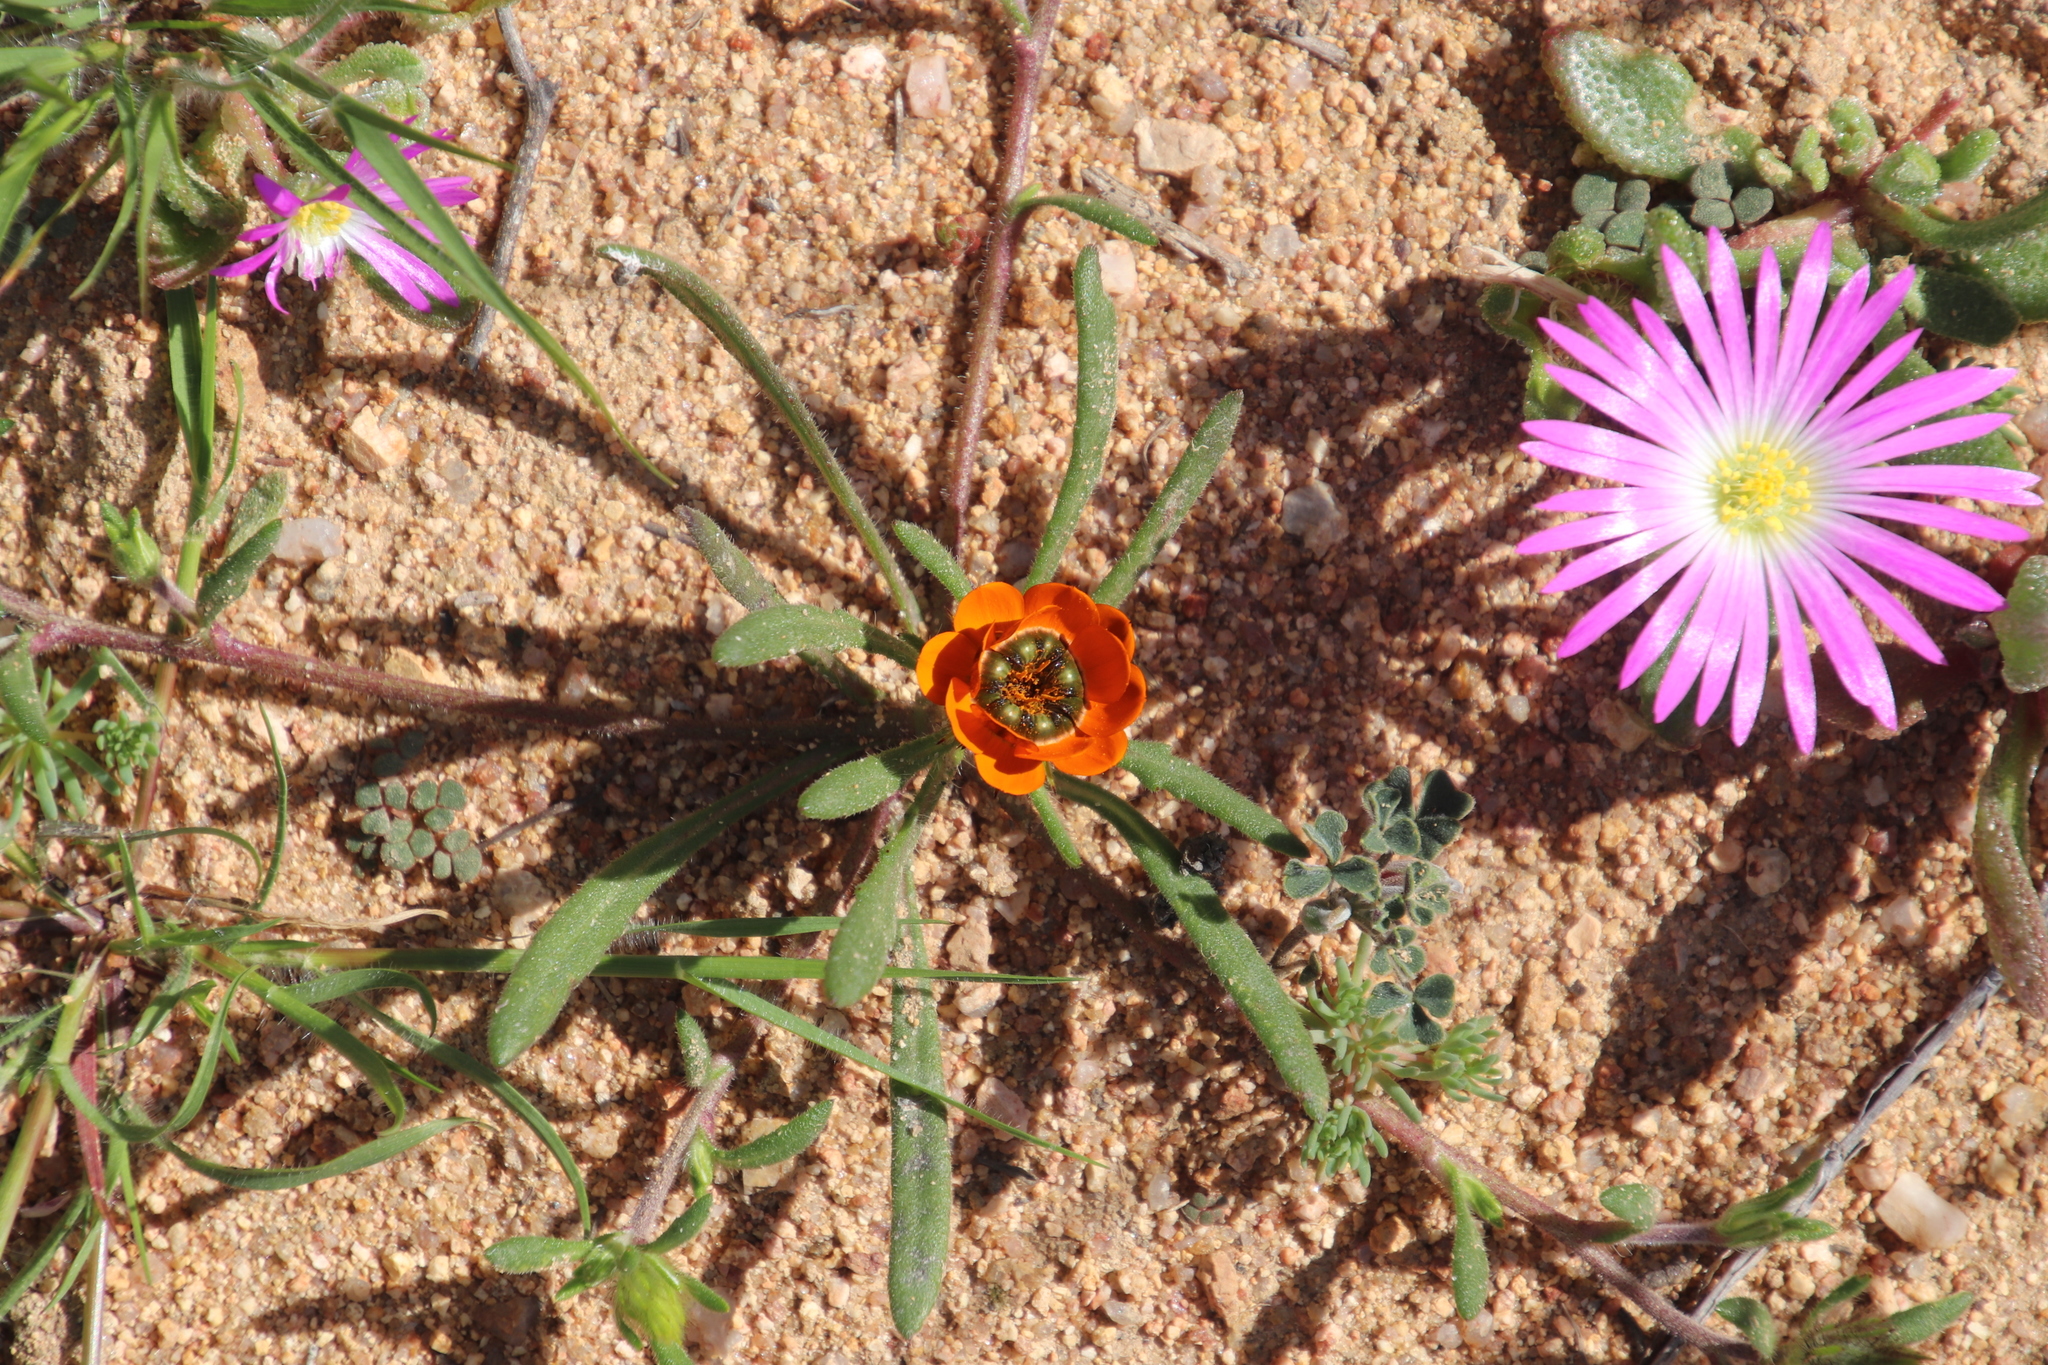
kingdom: Plantae
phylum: Tracheophyta
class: Magnoliopsida
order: Asterales
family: Asteraceae
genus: Gorteria
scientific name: Gorteria diffusa
